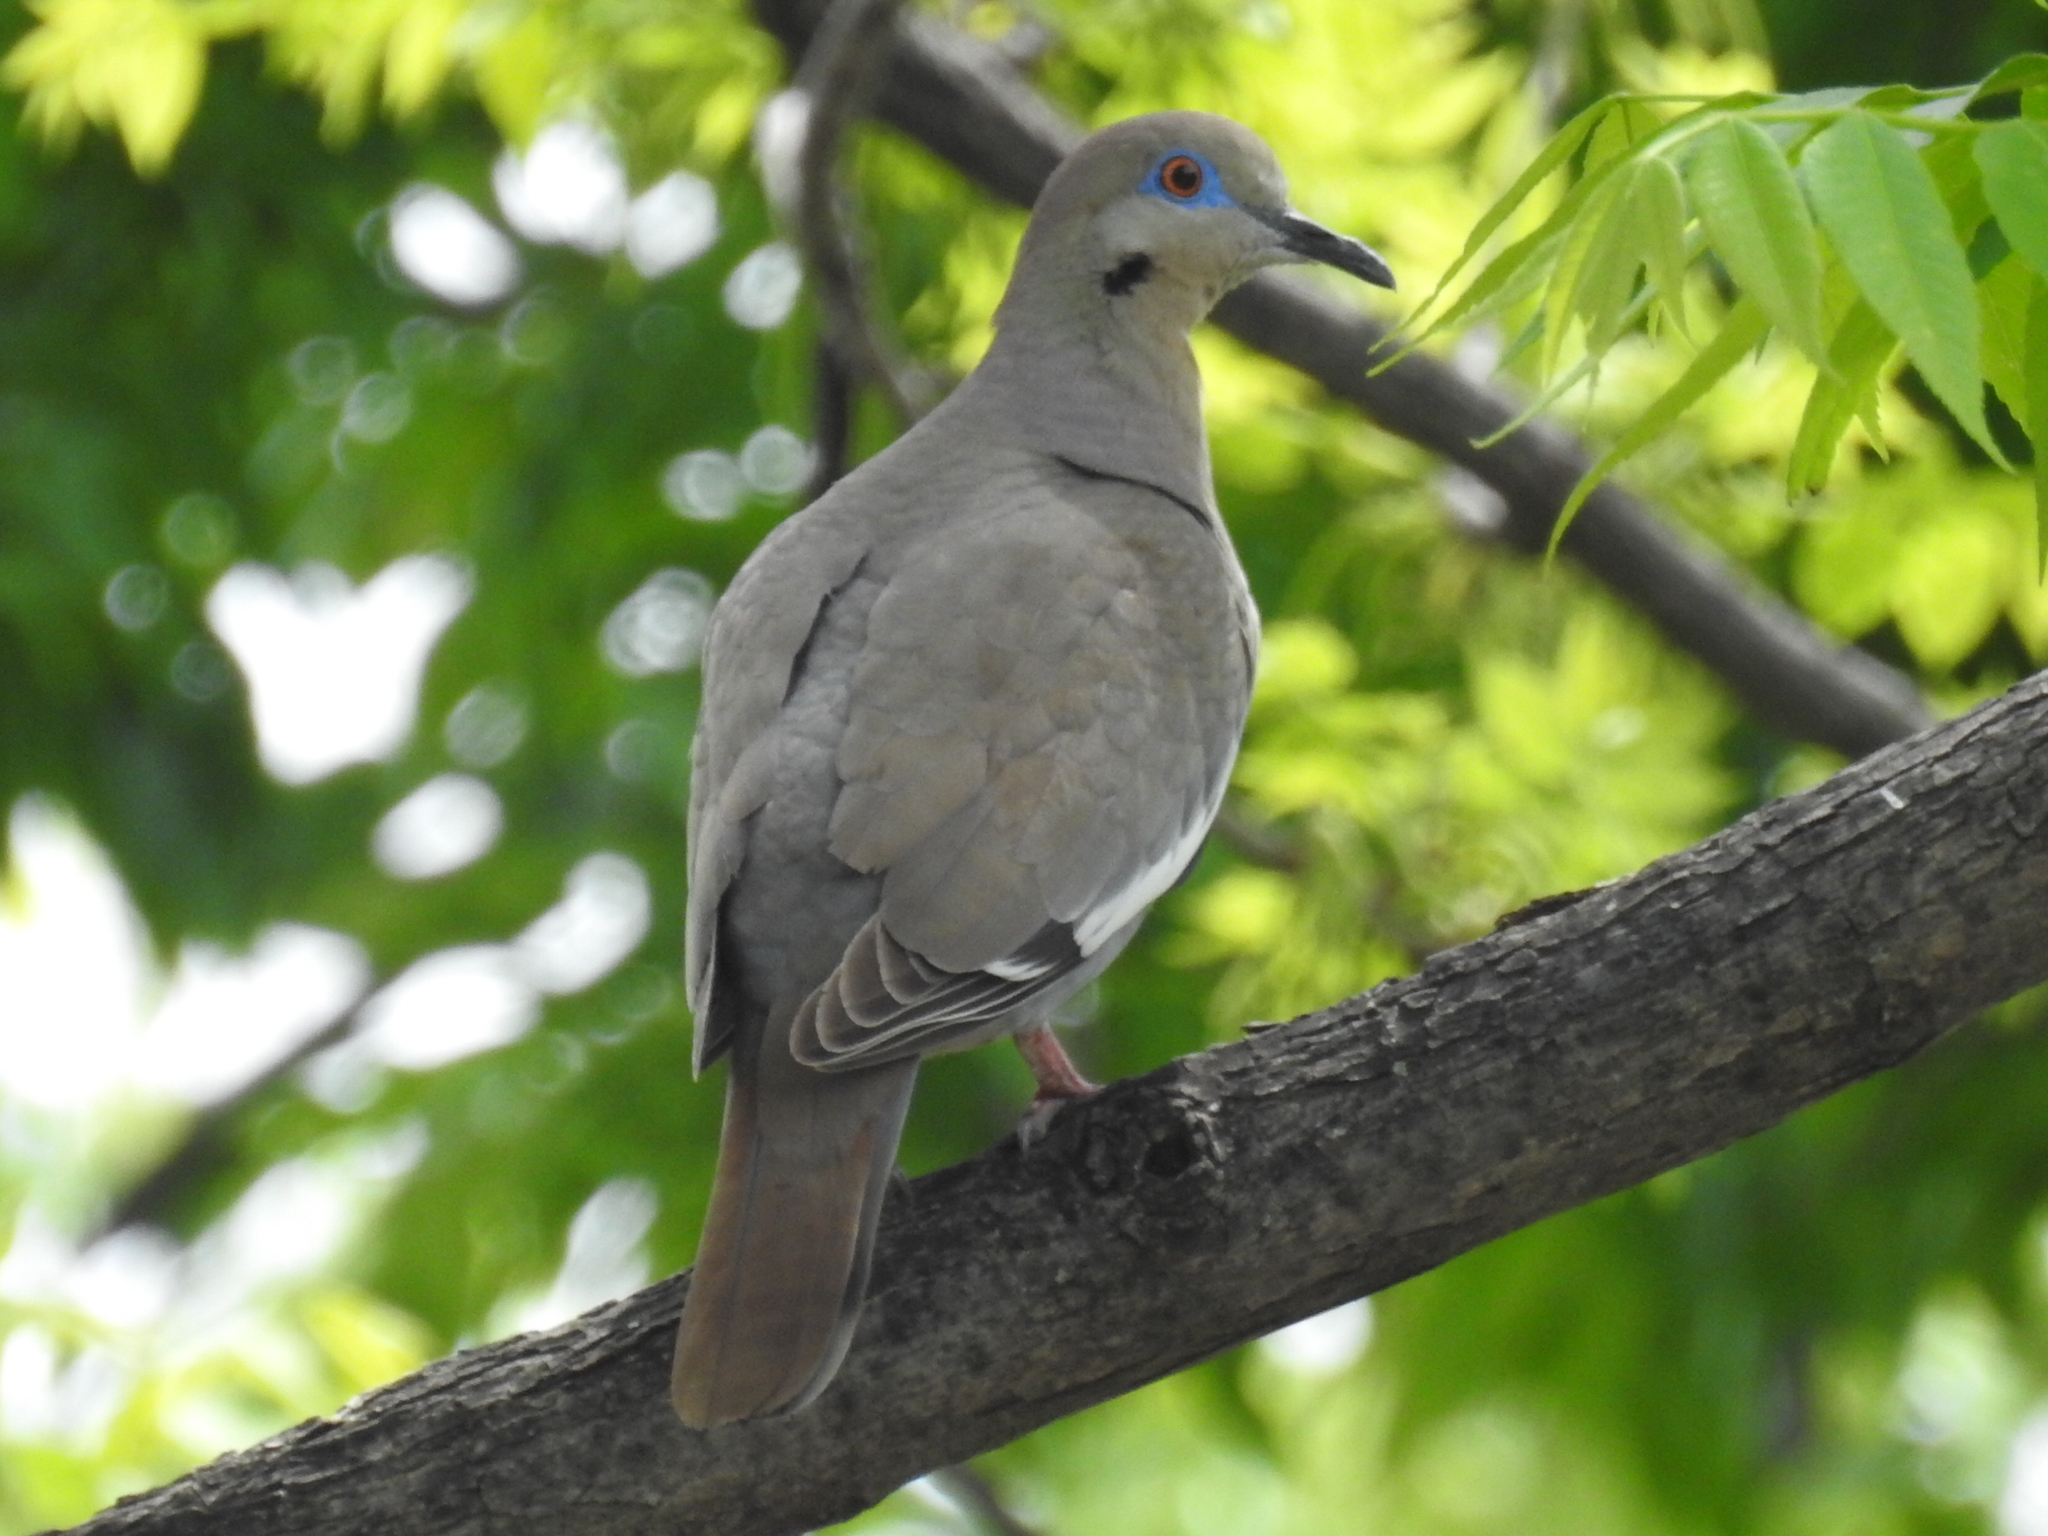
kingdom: Animalia
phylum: Chordata
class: Aves
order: Columbiformes
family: Columbidae
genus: Zenaida
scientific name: Zenaida asiatica
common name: White-winged dove
